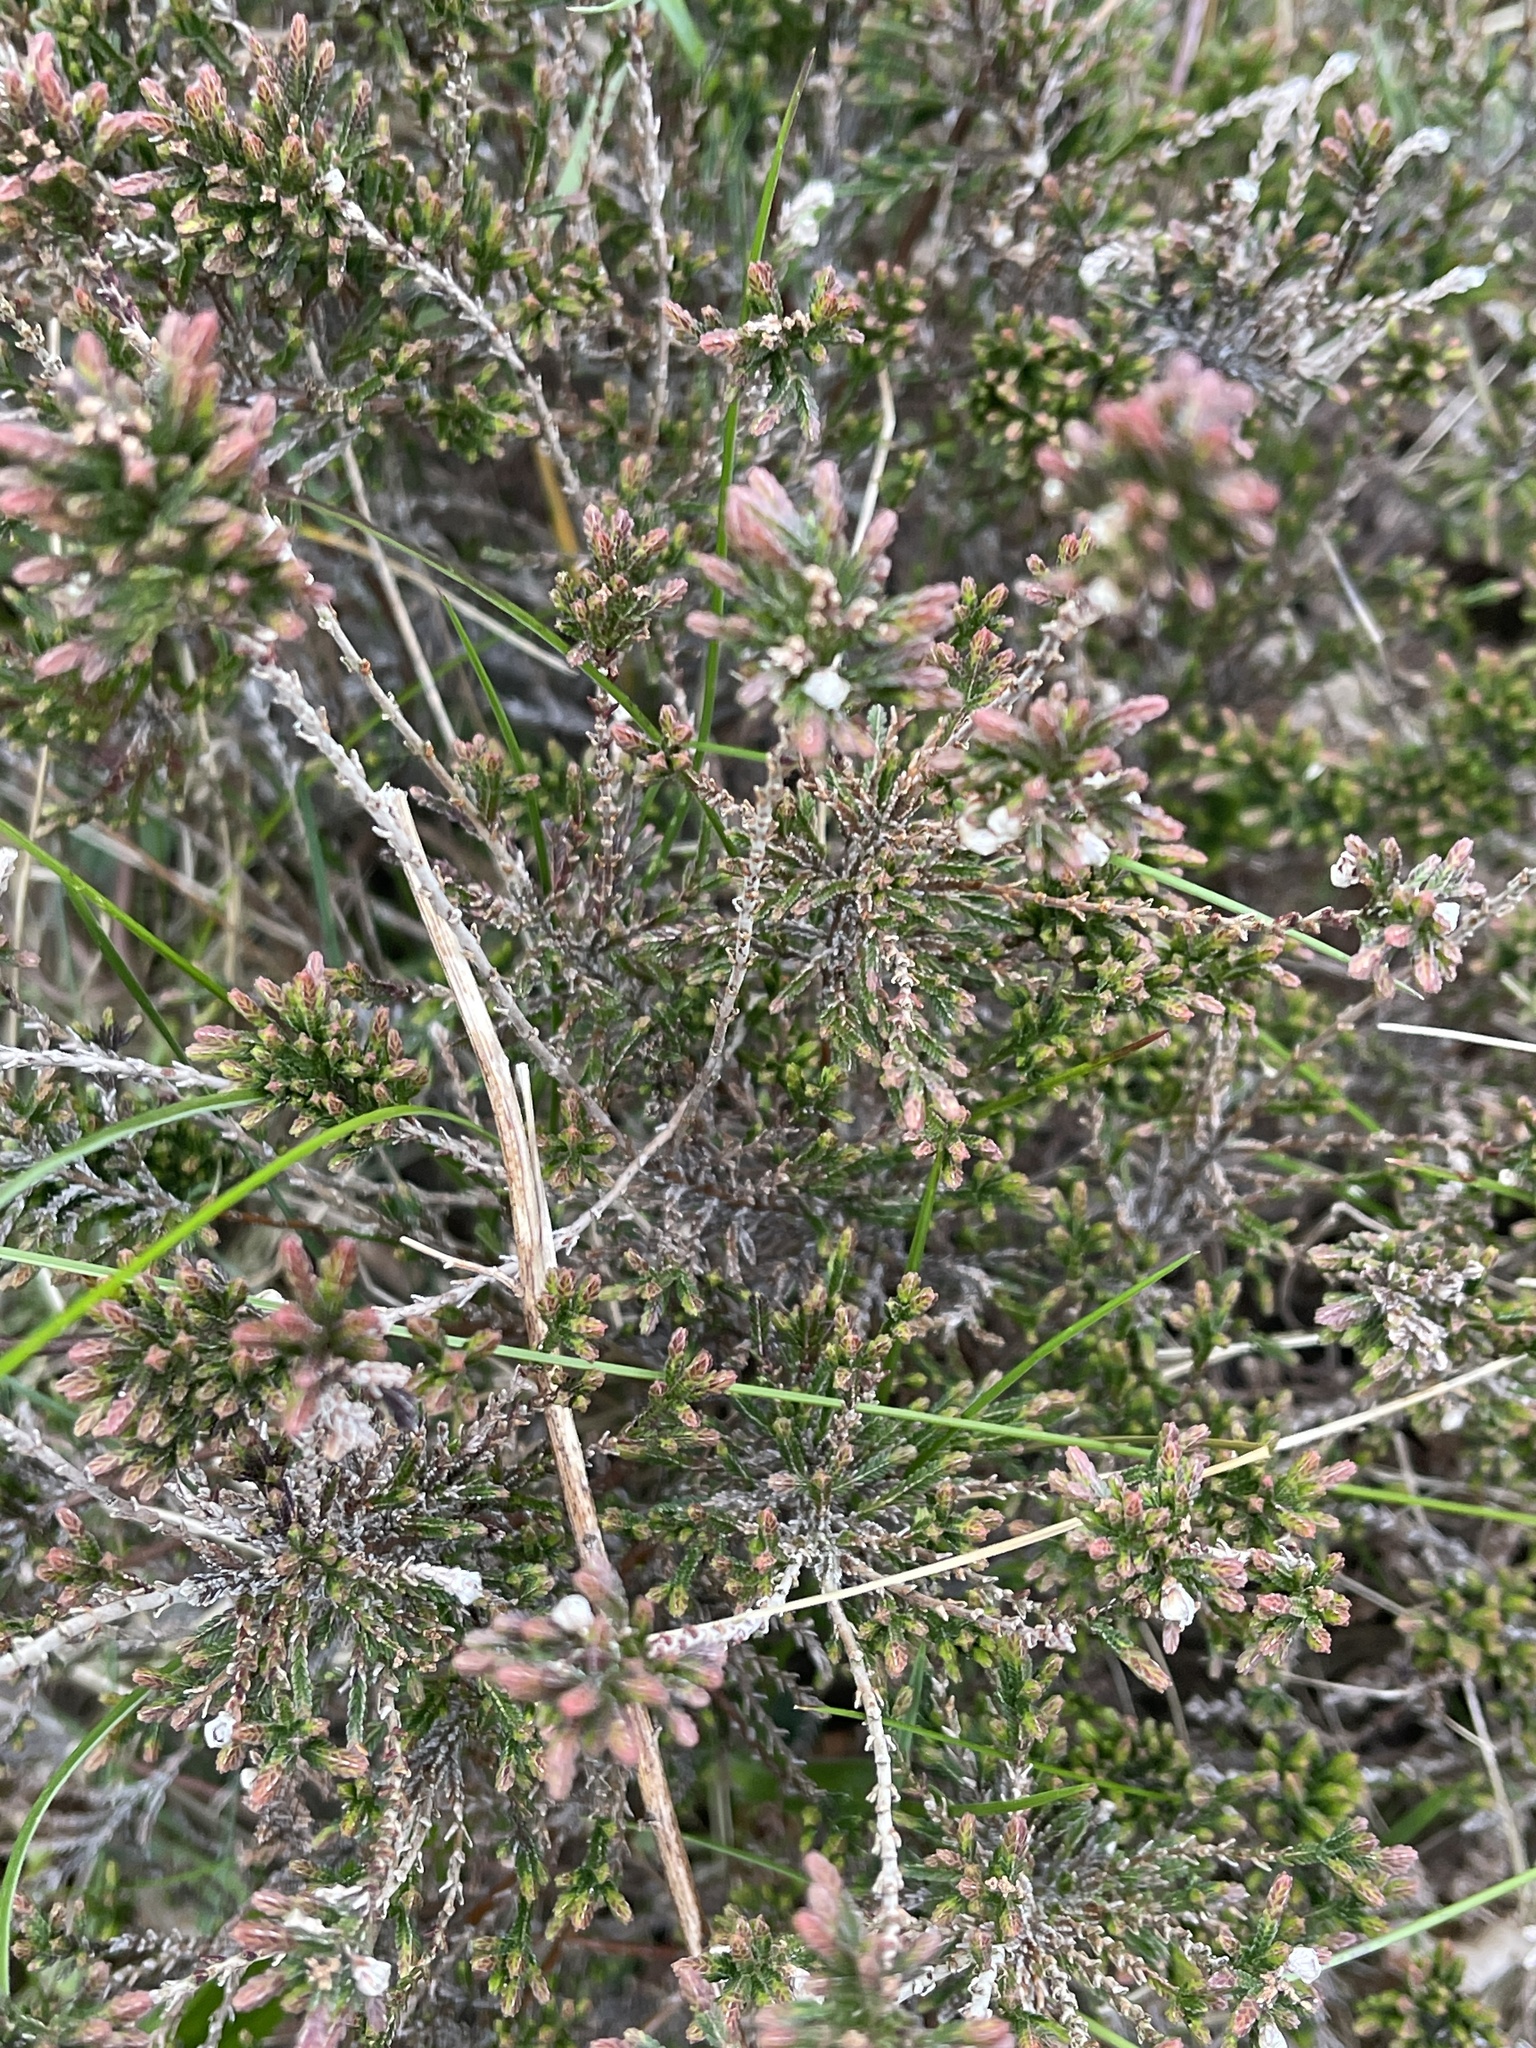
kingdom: Plantae
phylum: Tracheophyta
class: Magnoliopsida
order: Ericales
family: Ericaceae
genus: Calluna
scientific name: Calluna vulgaris
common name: Heather
